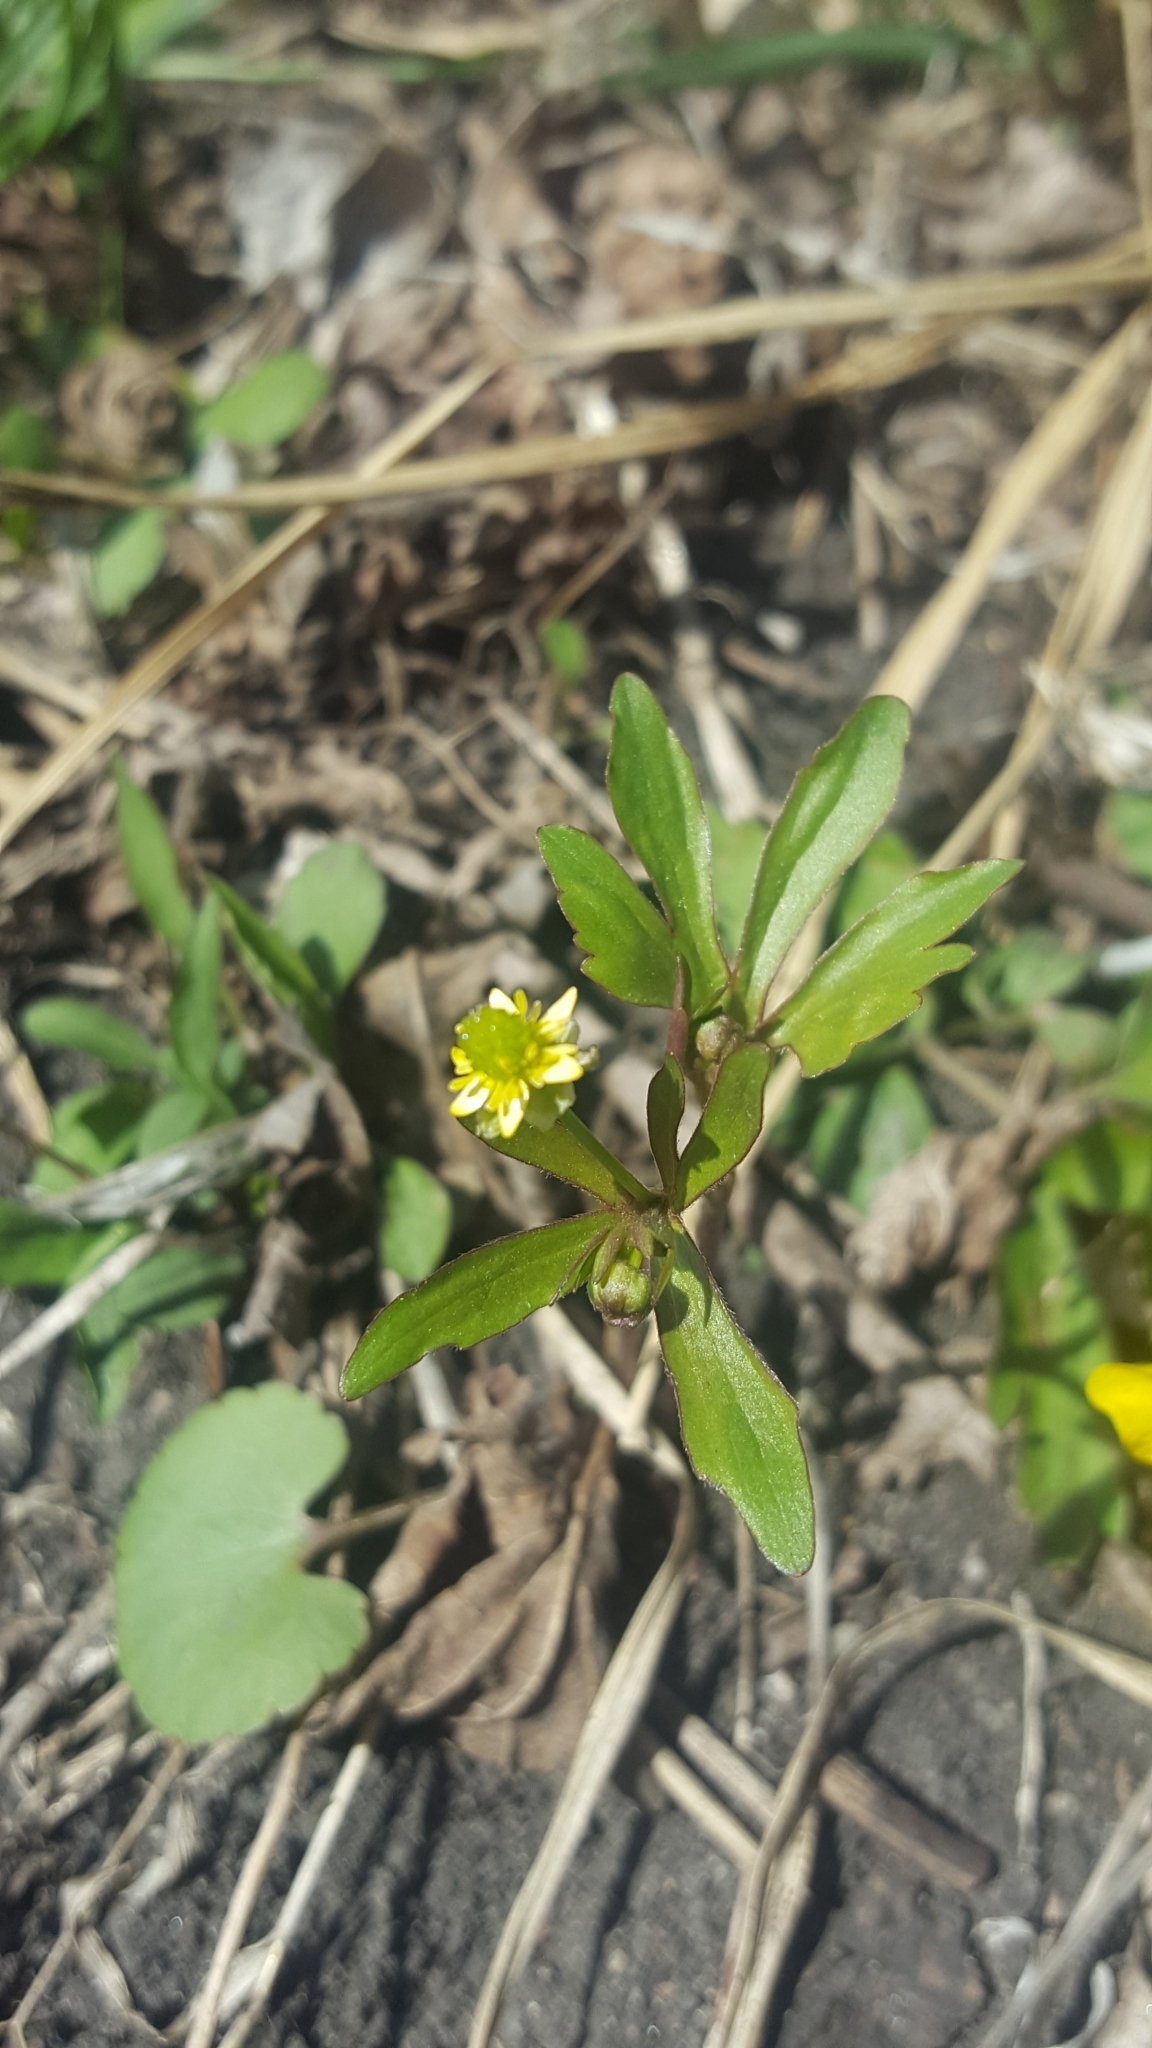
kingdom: Plantae
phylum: Tracheophyta
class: Magnoliopsida
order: Ranunculales
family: Ranunculaceae
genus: Ranunculus
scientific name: Ranunculus abortivus
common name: Early wood buttercup
